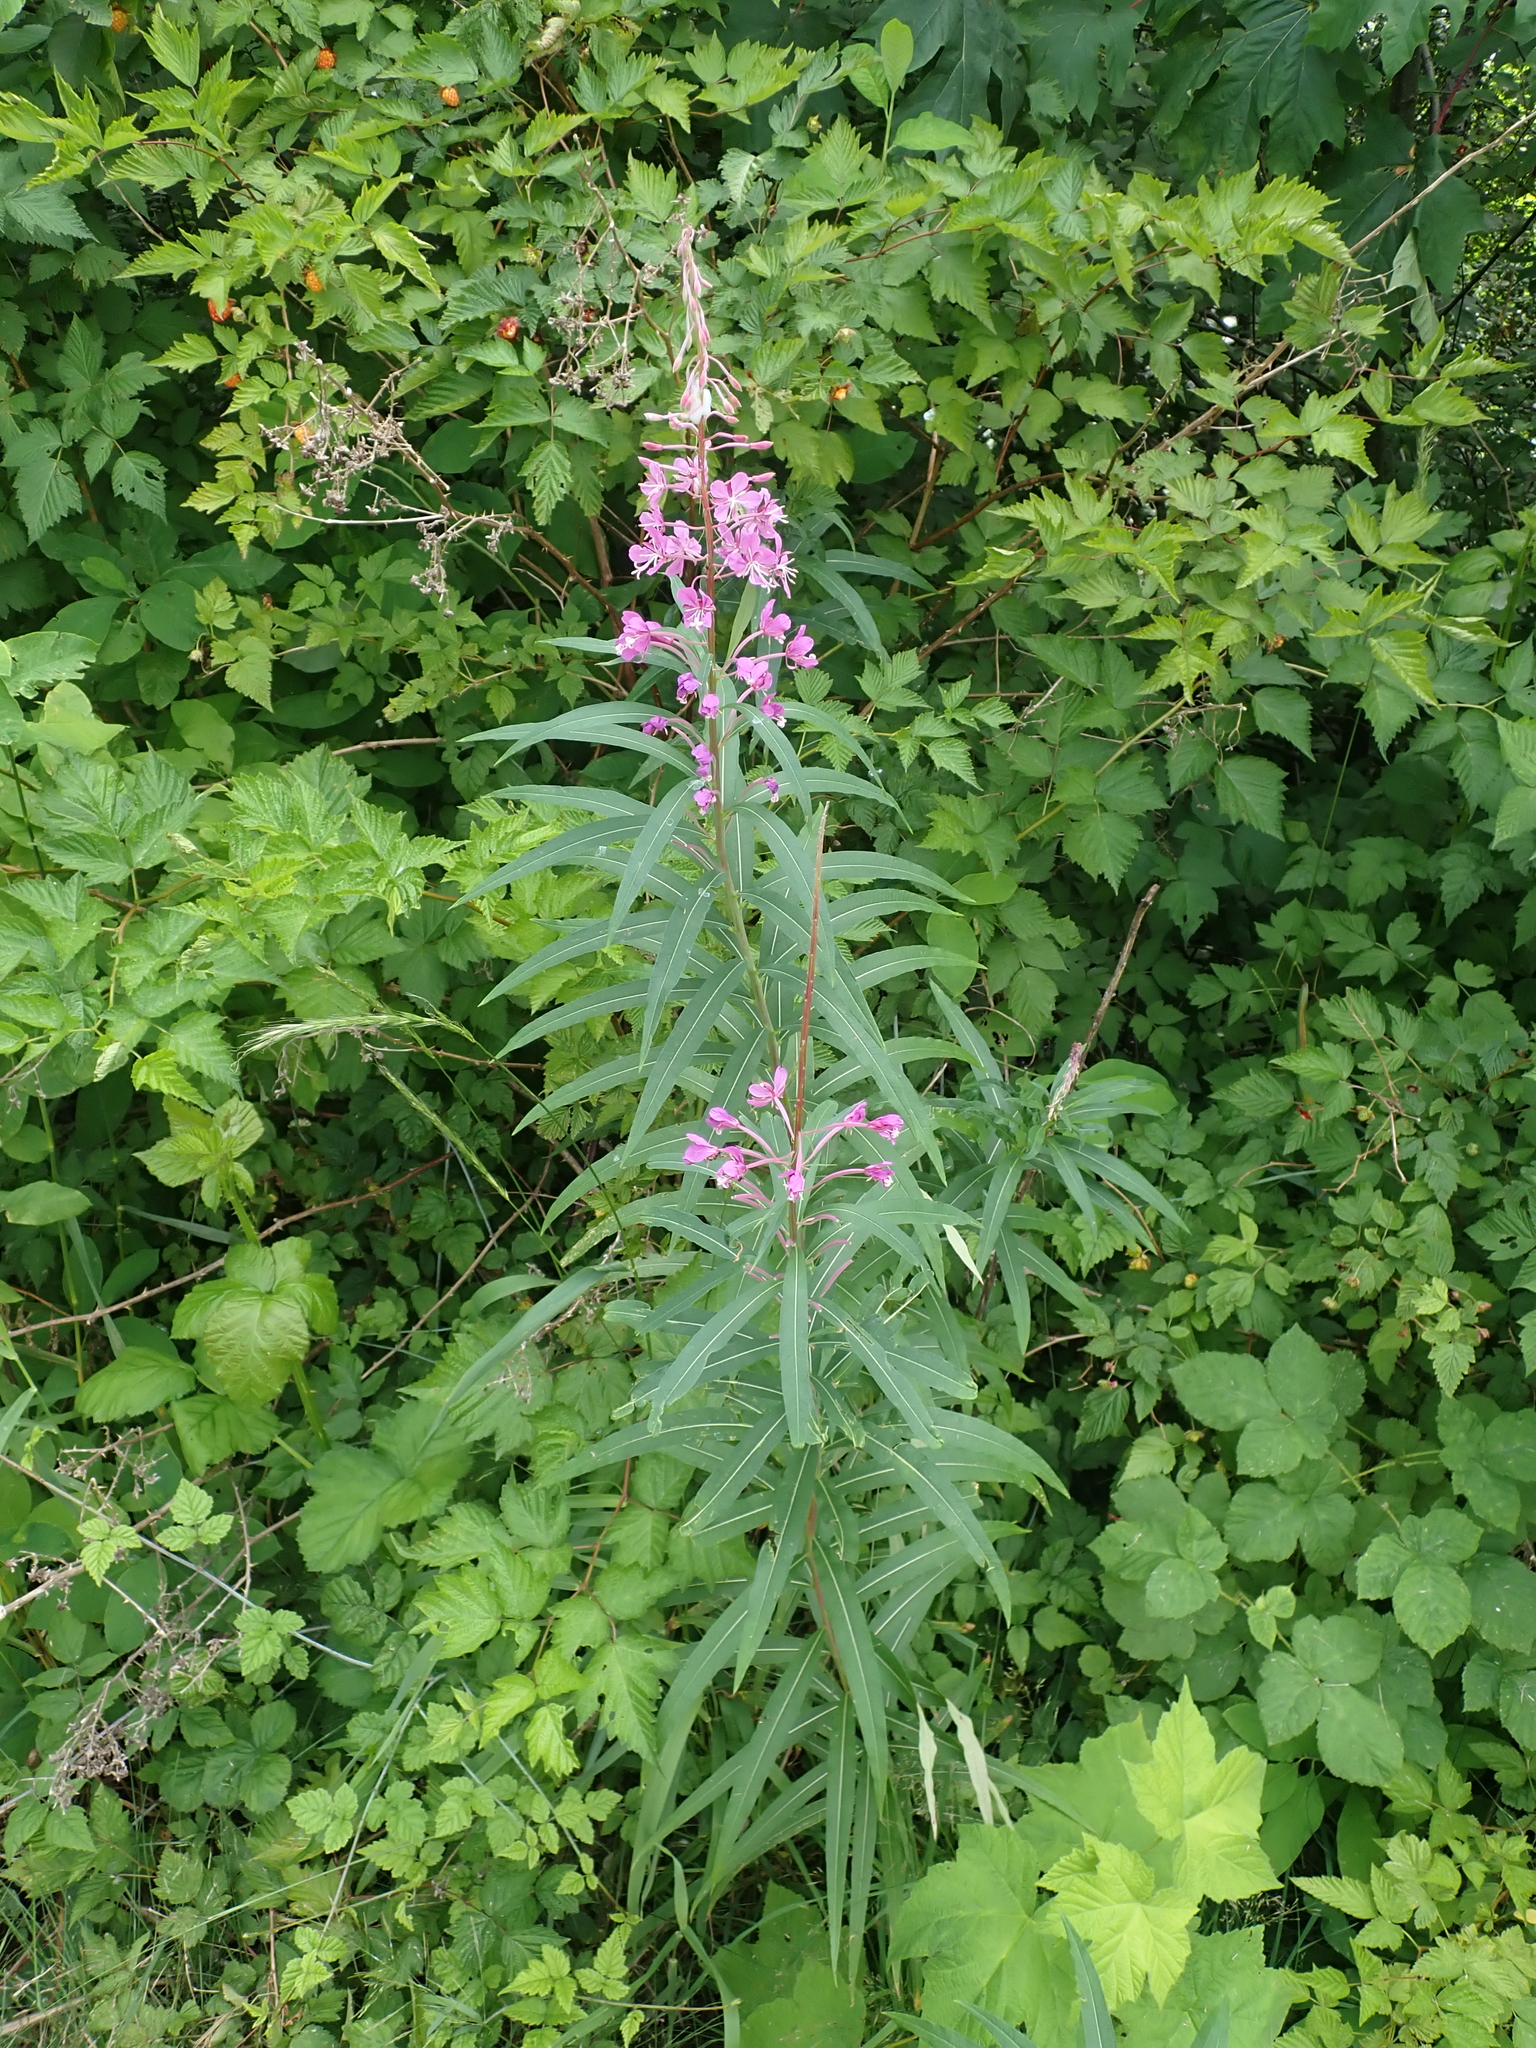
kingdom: Plantae
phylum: Tracheophyta
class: Magnoliopsida
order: Myrtales
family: Onagraceae
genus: Chamaenerion
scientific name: Chamaenerion angustifolium
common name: Fireweed
